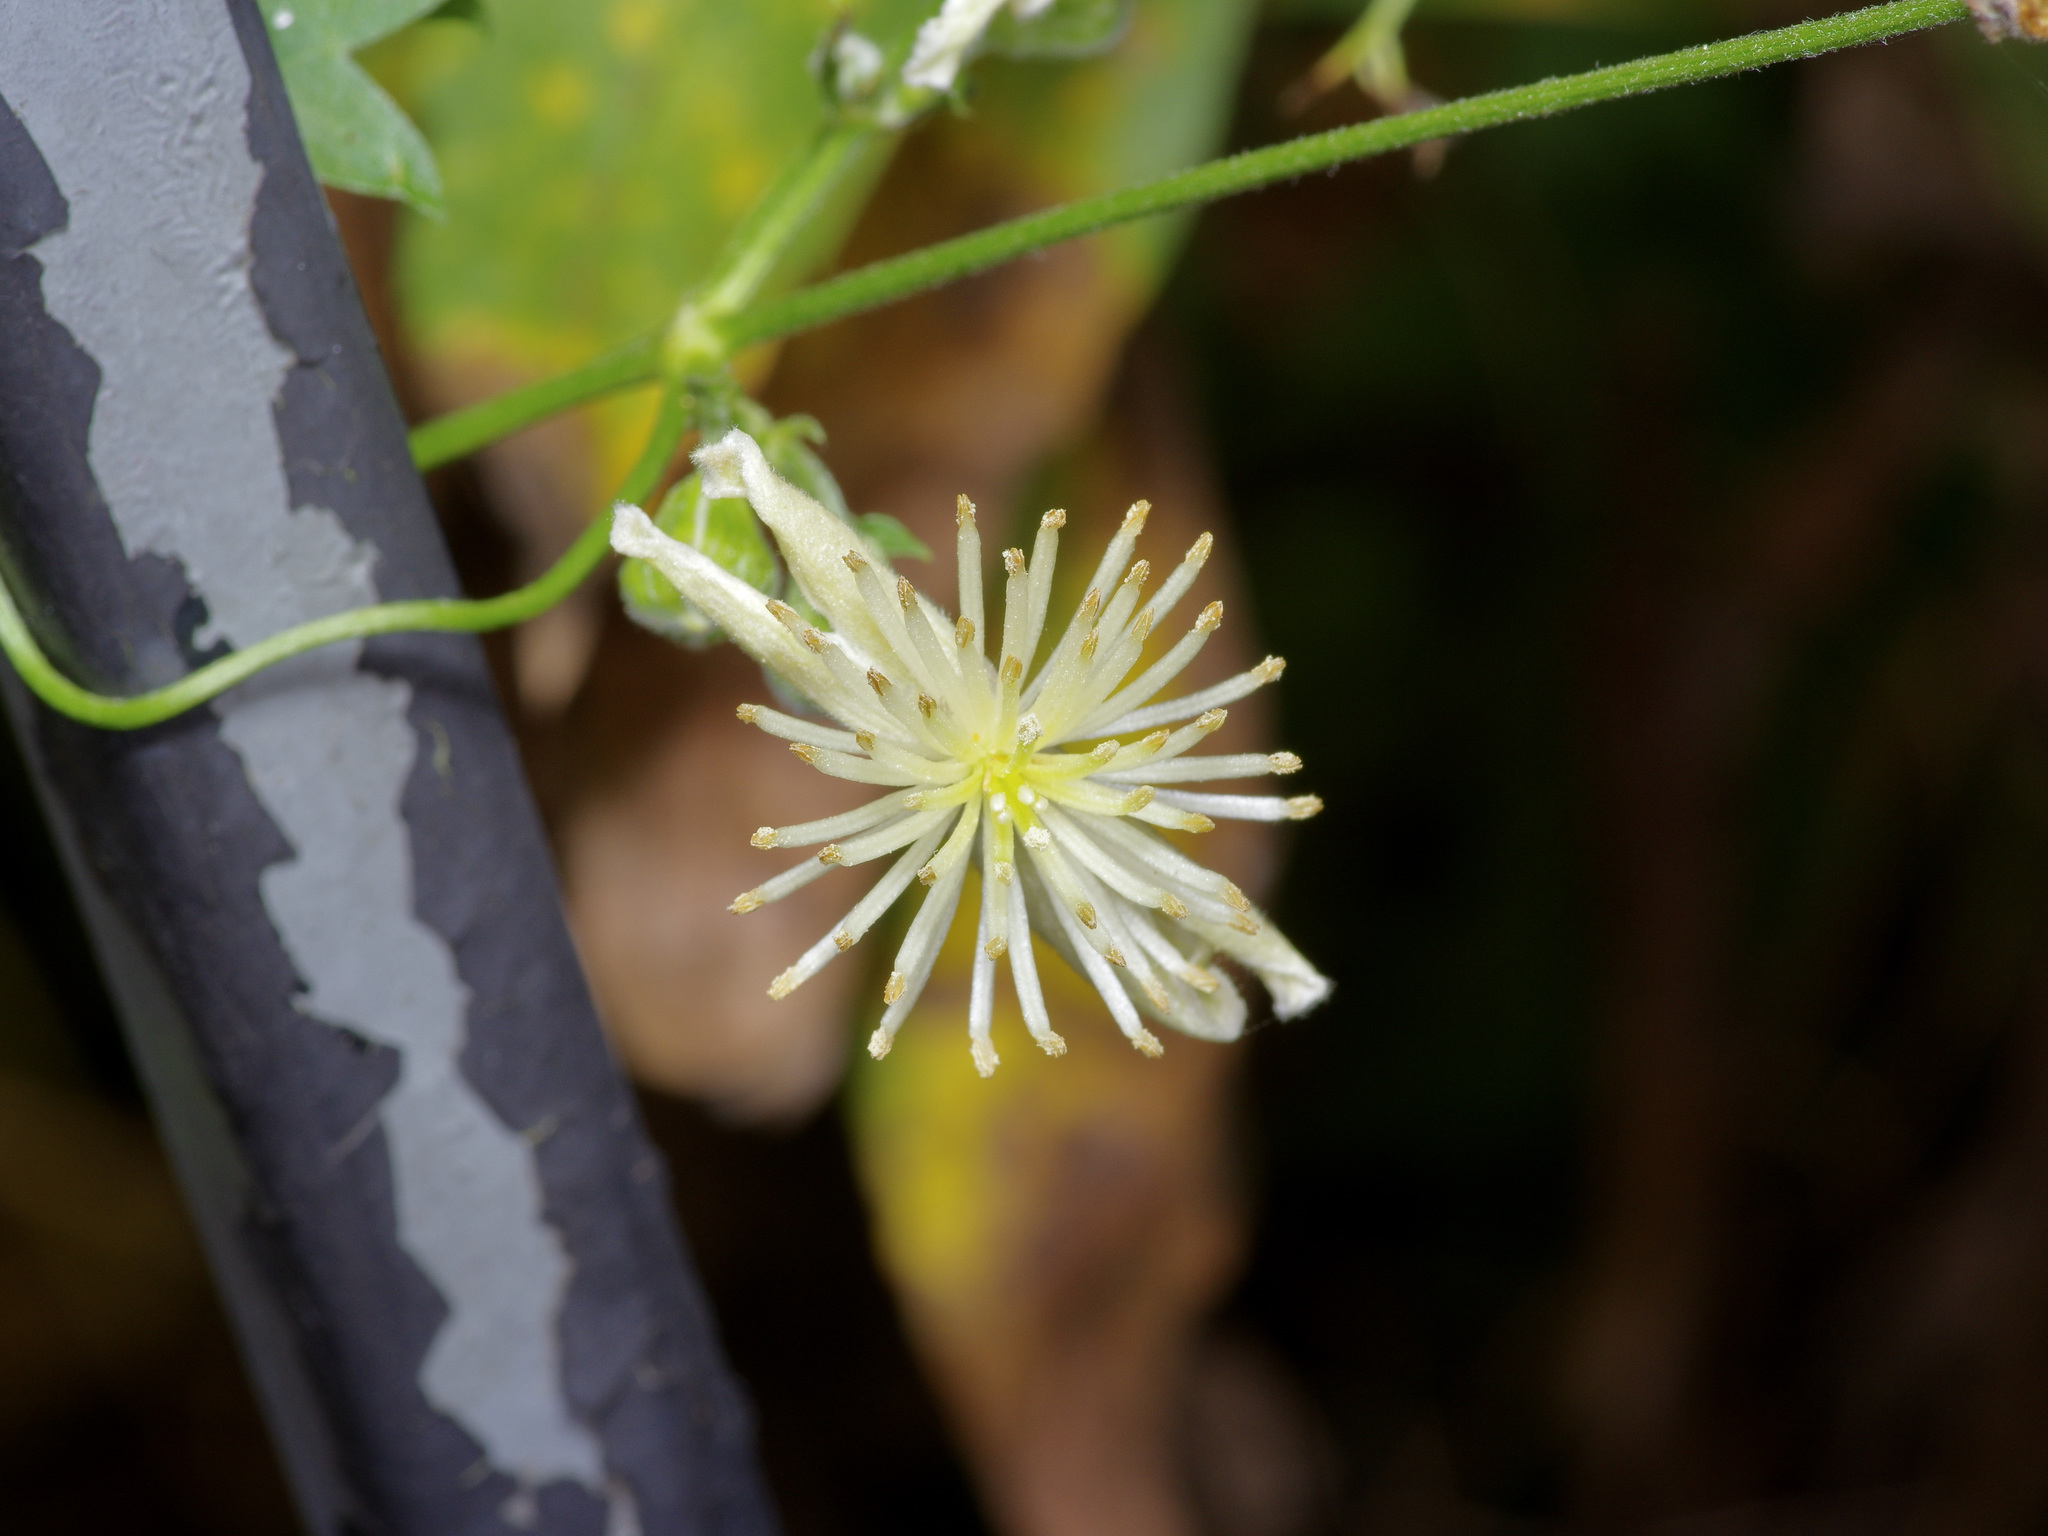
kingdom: Plantae
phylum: Tracheophyta
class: Magnoliopsida
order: Ranunculales
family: Ranunculaceae
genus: Clematis
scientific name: Clematis drummondii
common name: Texas virgin's bower
